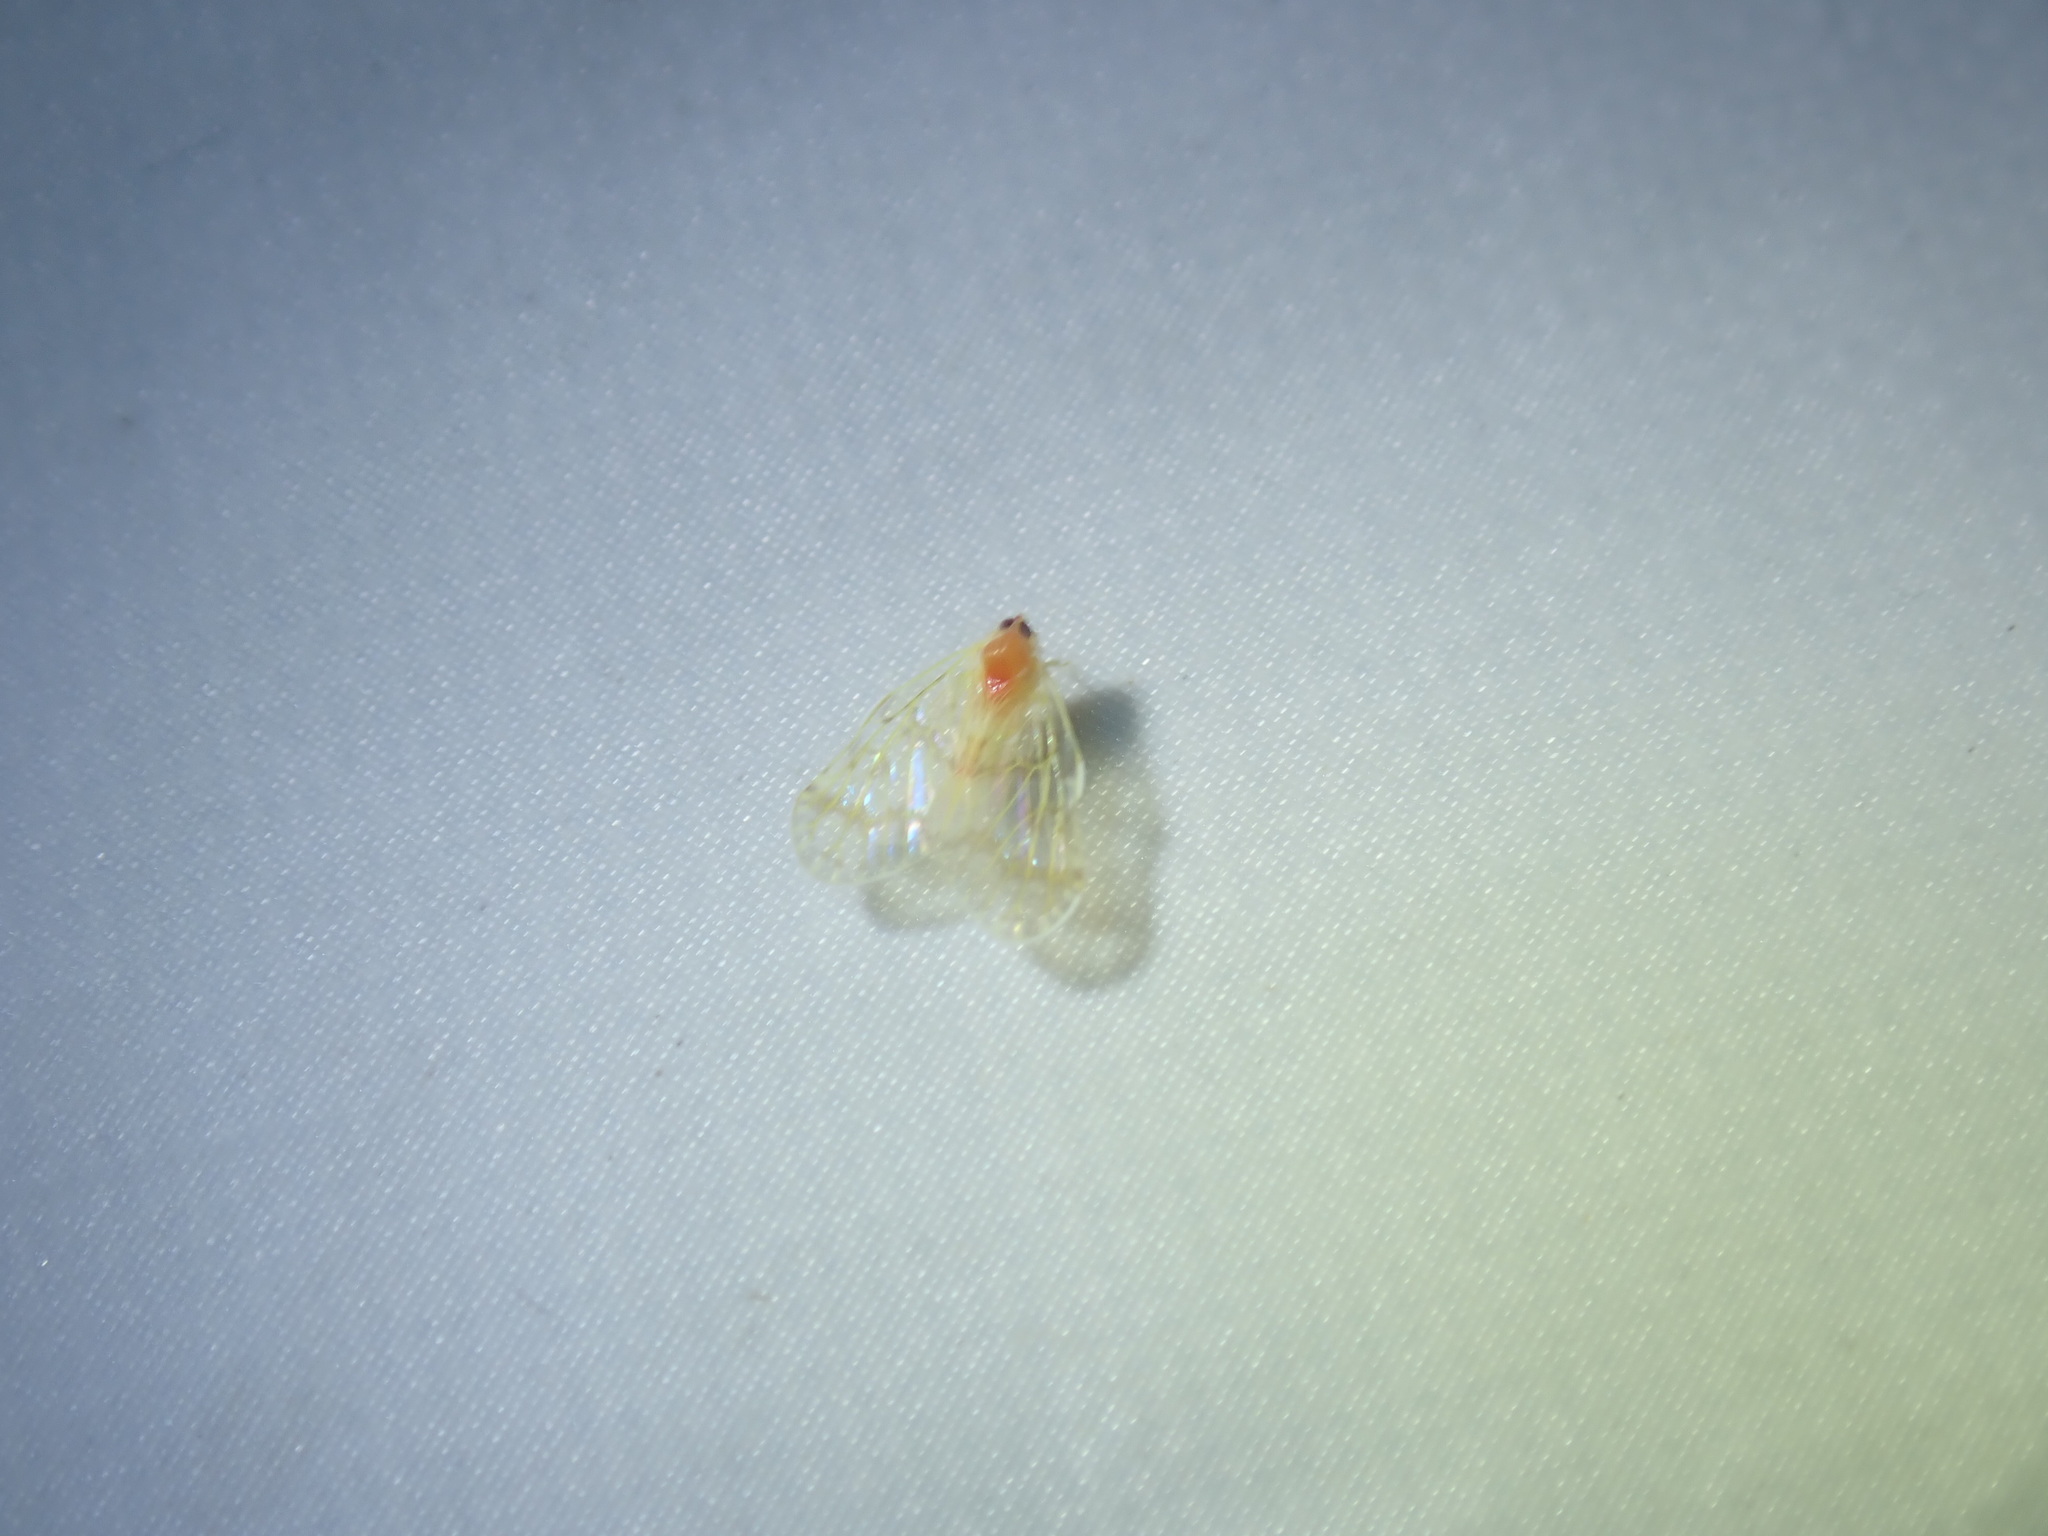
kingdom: Animalia
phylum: Arthropoda
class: Insecta
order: Hemiptera
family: Derbidae
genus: Saccharodite
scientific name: Saccharodite chrysonoe
